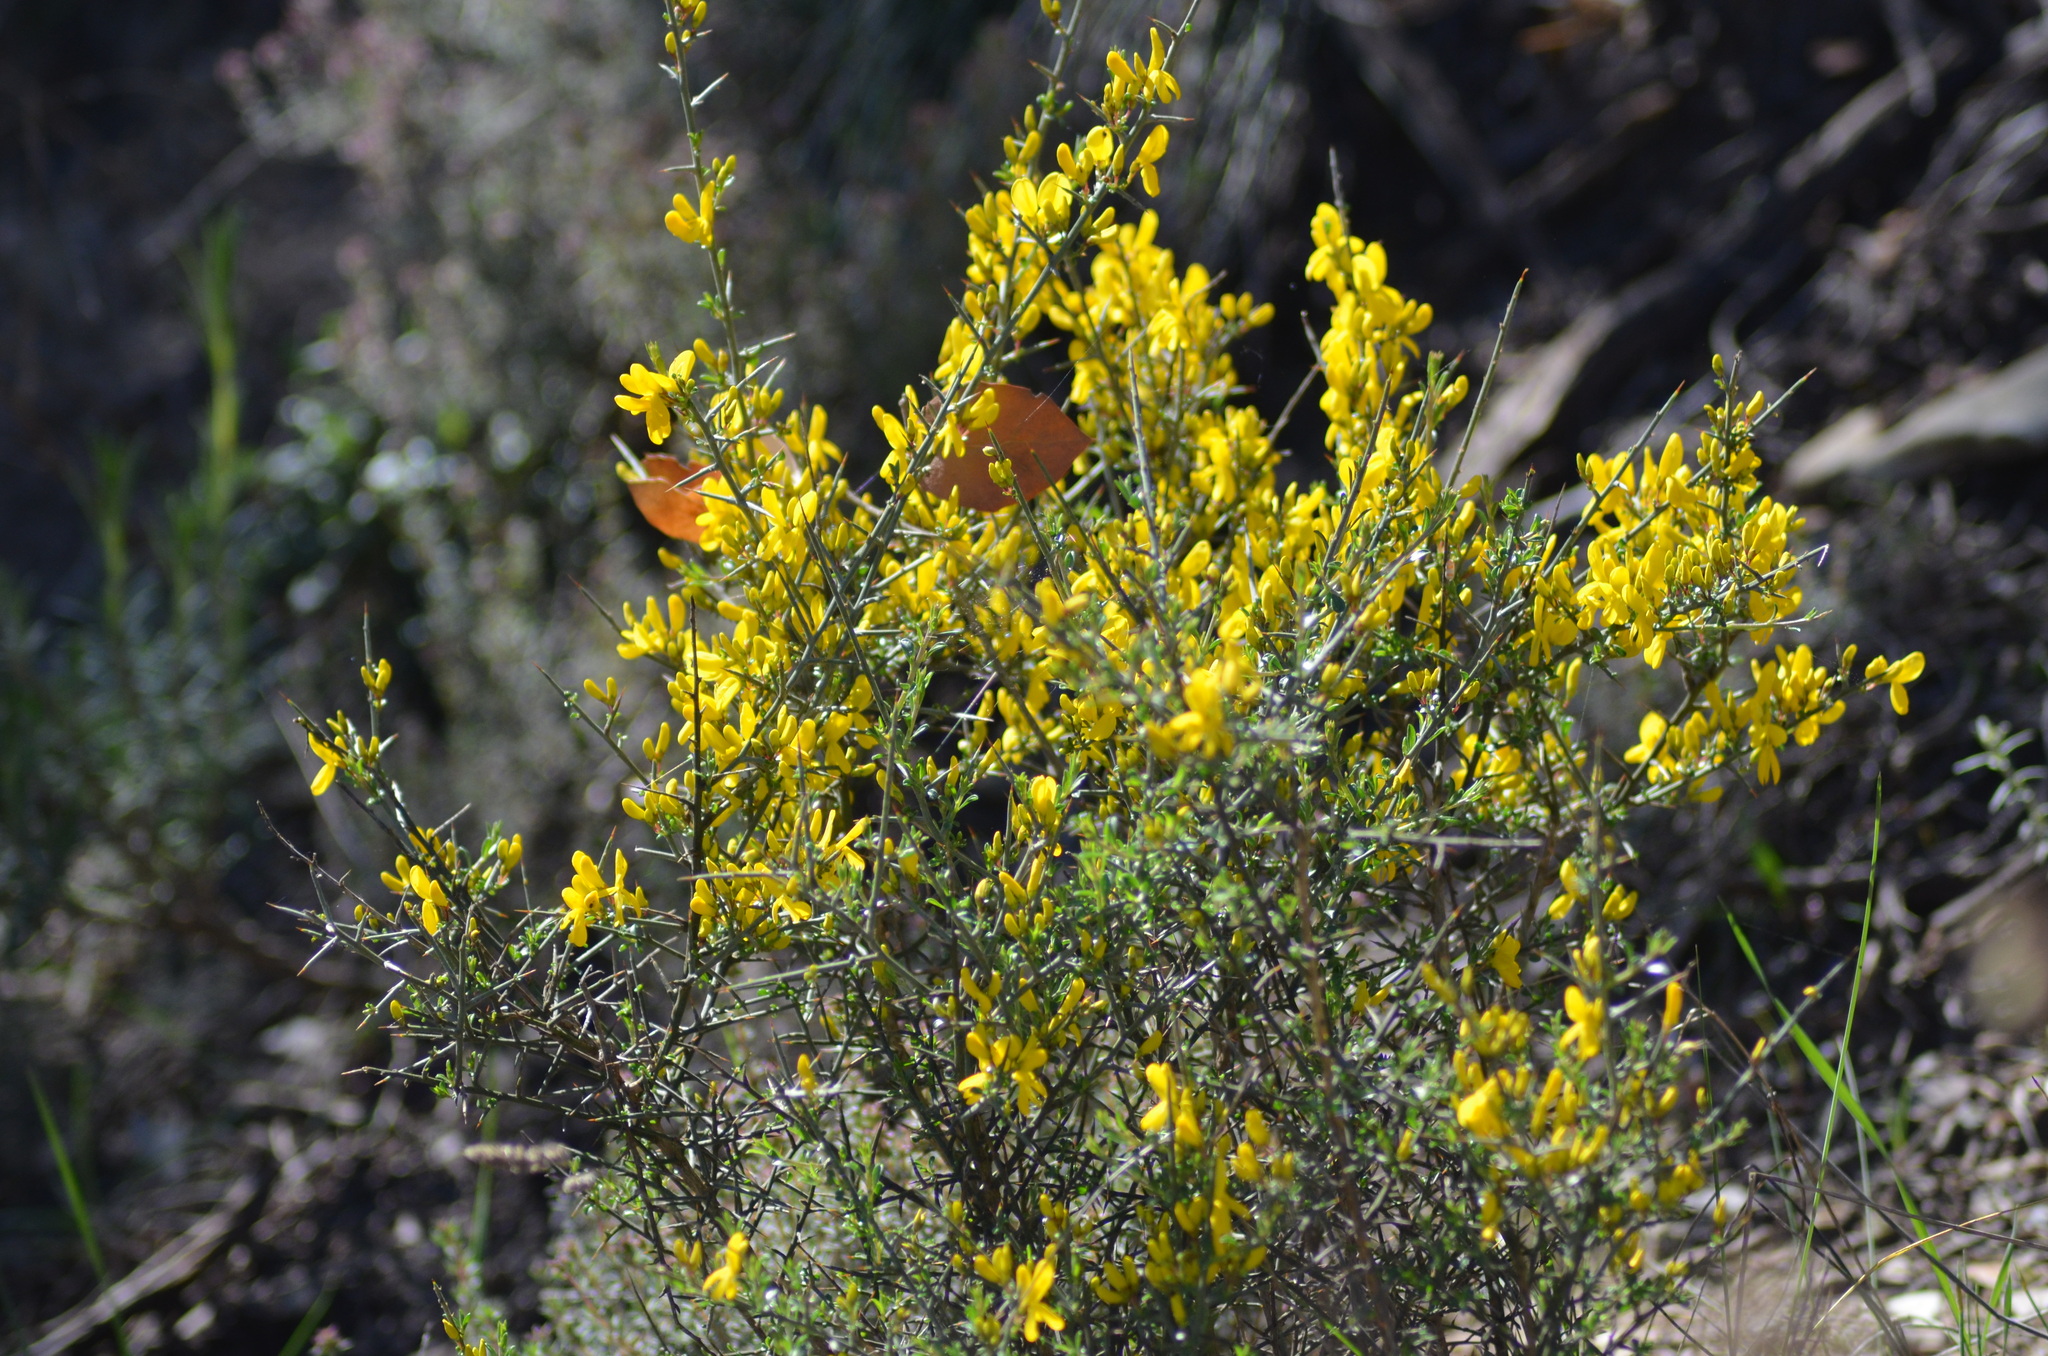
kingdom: Plantae
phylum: Tracheophyta
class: Magnoliopsida
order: Fabales
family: Fabaceae
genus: Genista
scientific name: Genista scorpius
